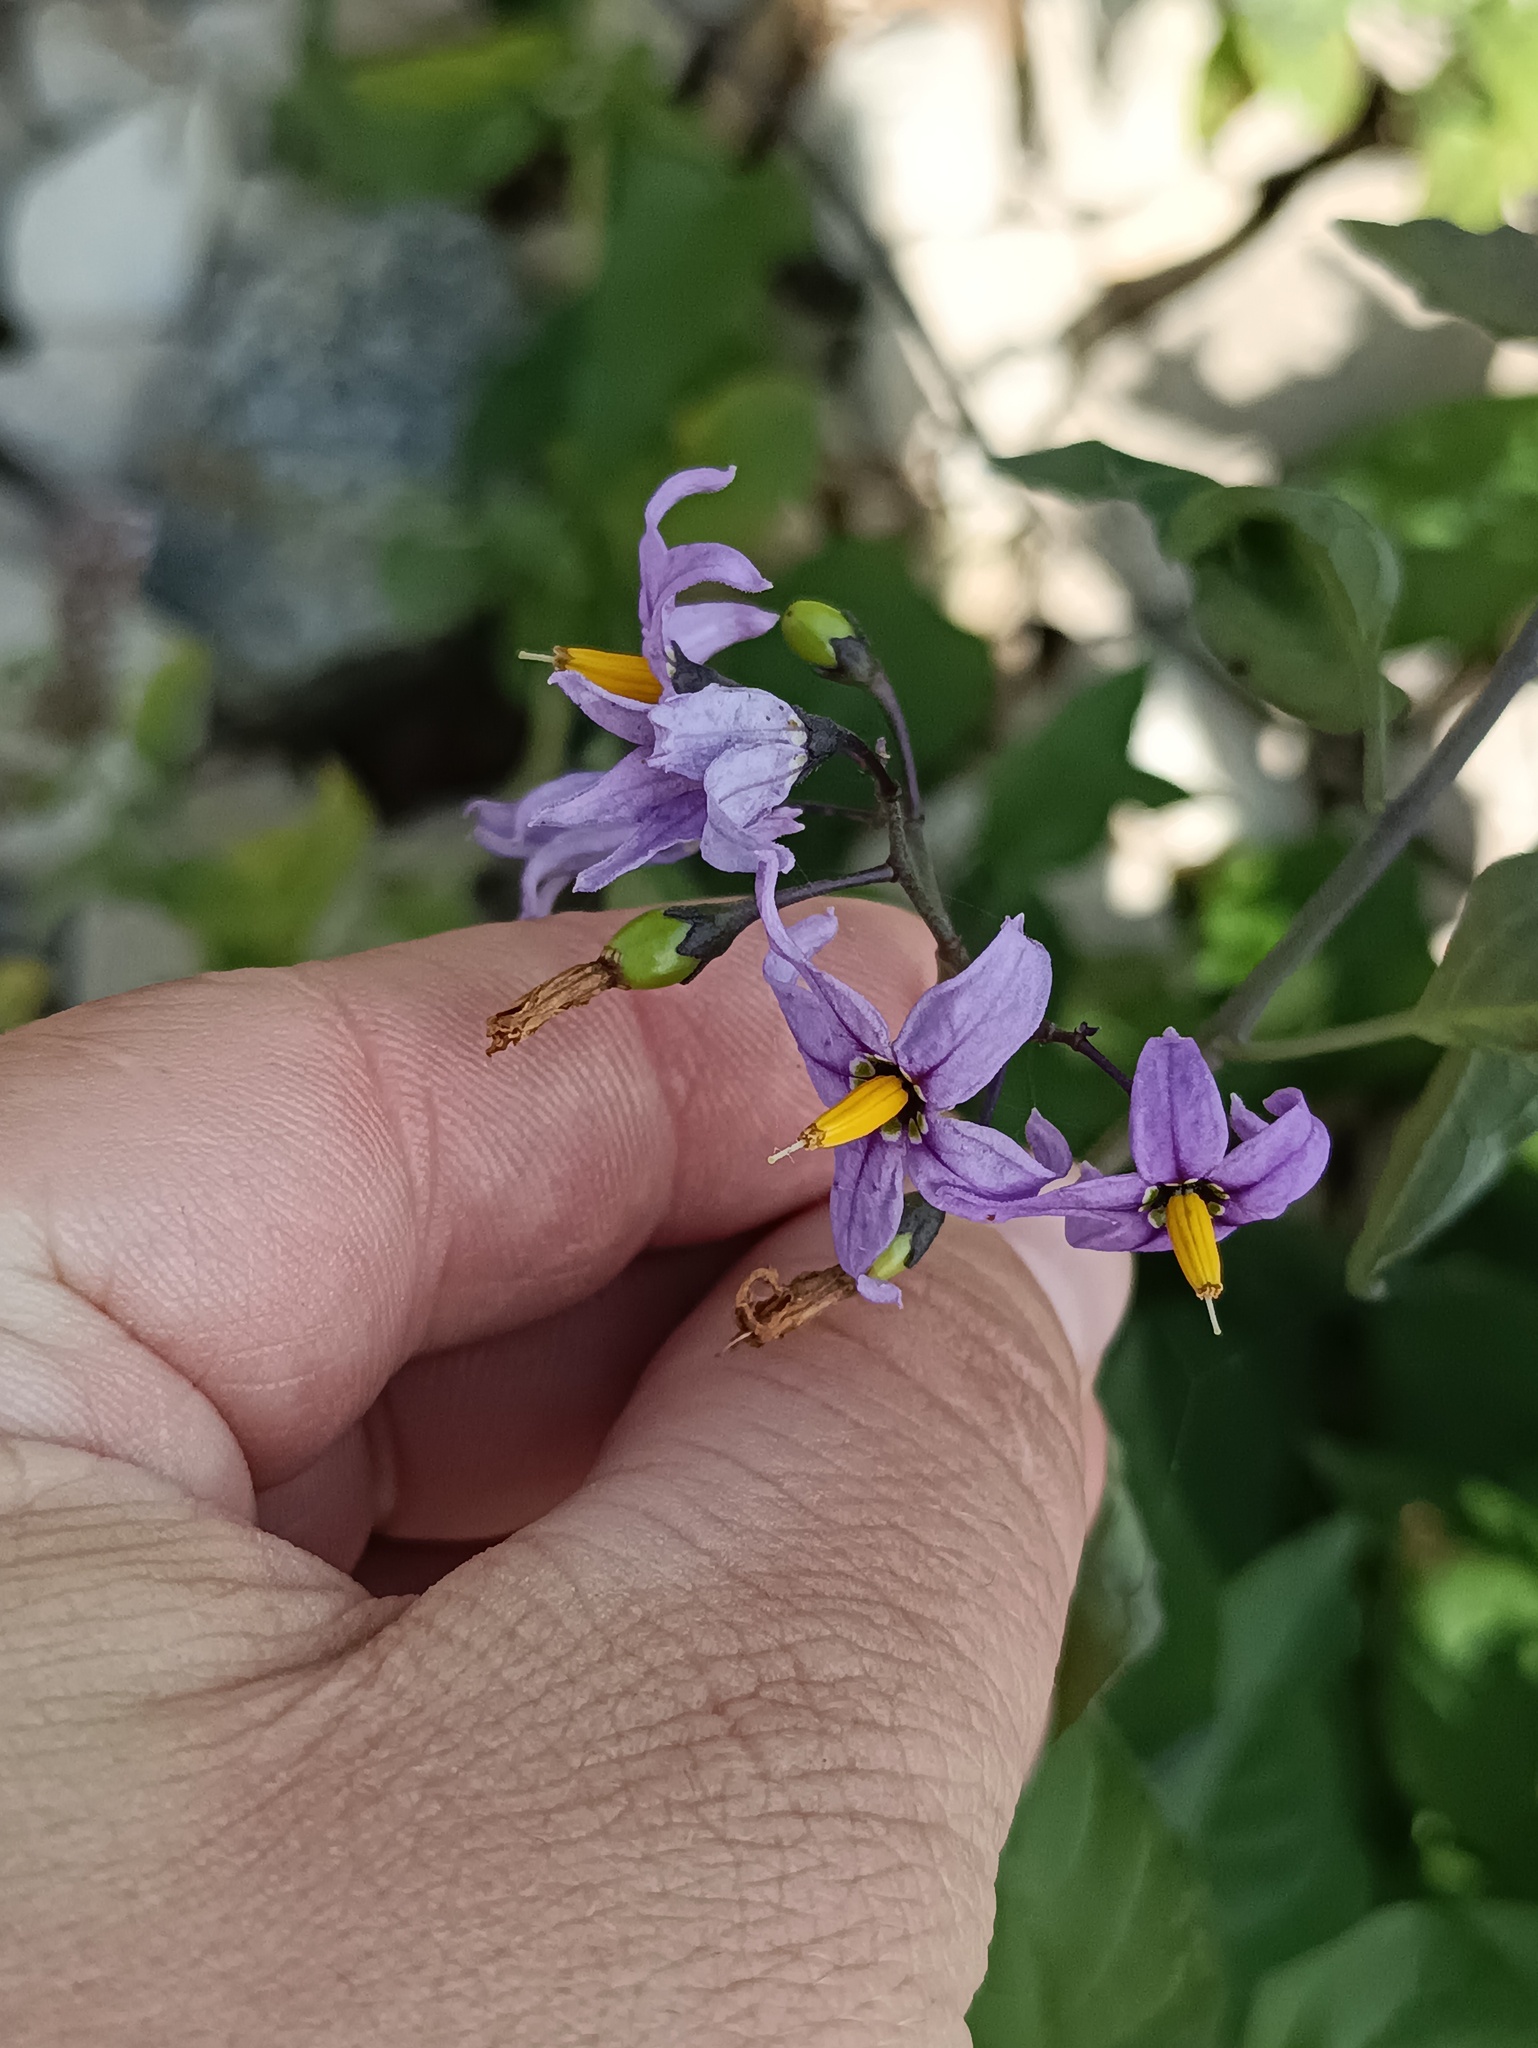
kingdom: Plantae
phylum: Tracheophyta
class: Magnoliopsida
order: Solanales
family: Solanaceae
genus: Solanum
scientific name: Solanum dulcamara
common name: Climbing nightshade
